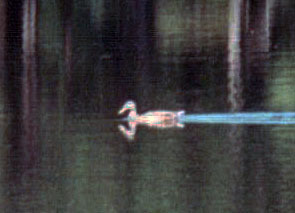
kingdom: Animalia
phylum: Chordata
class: Aves
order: Anseriformes
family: Anatidae
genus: Anas
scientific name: Anas platyrhynchos
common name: Mallard
